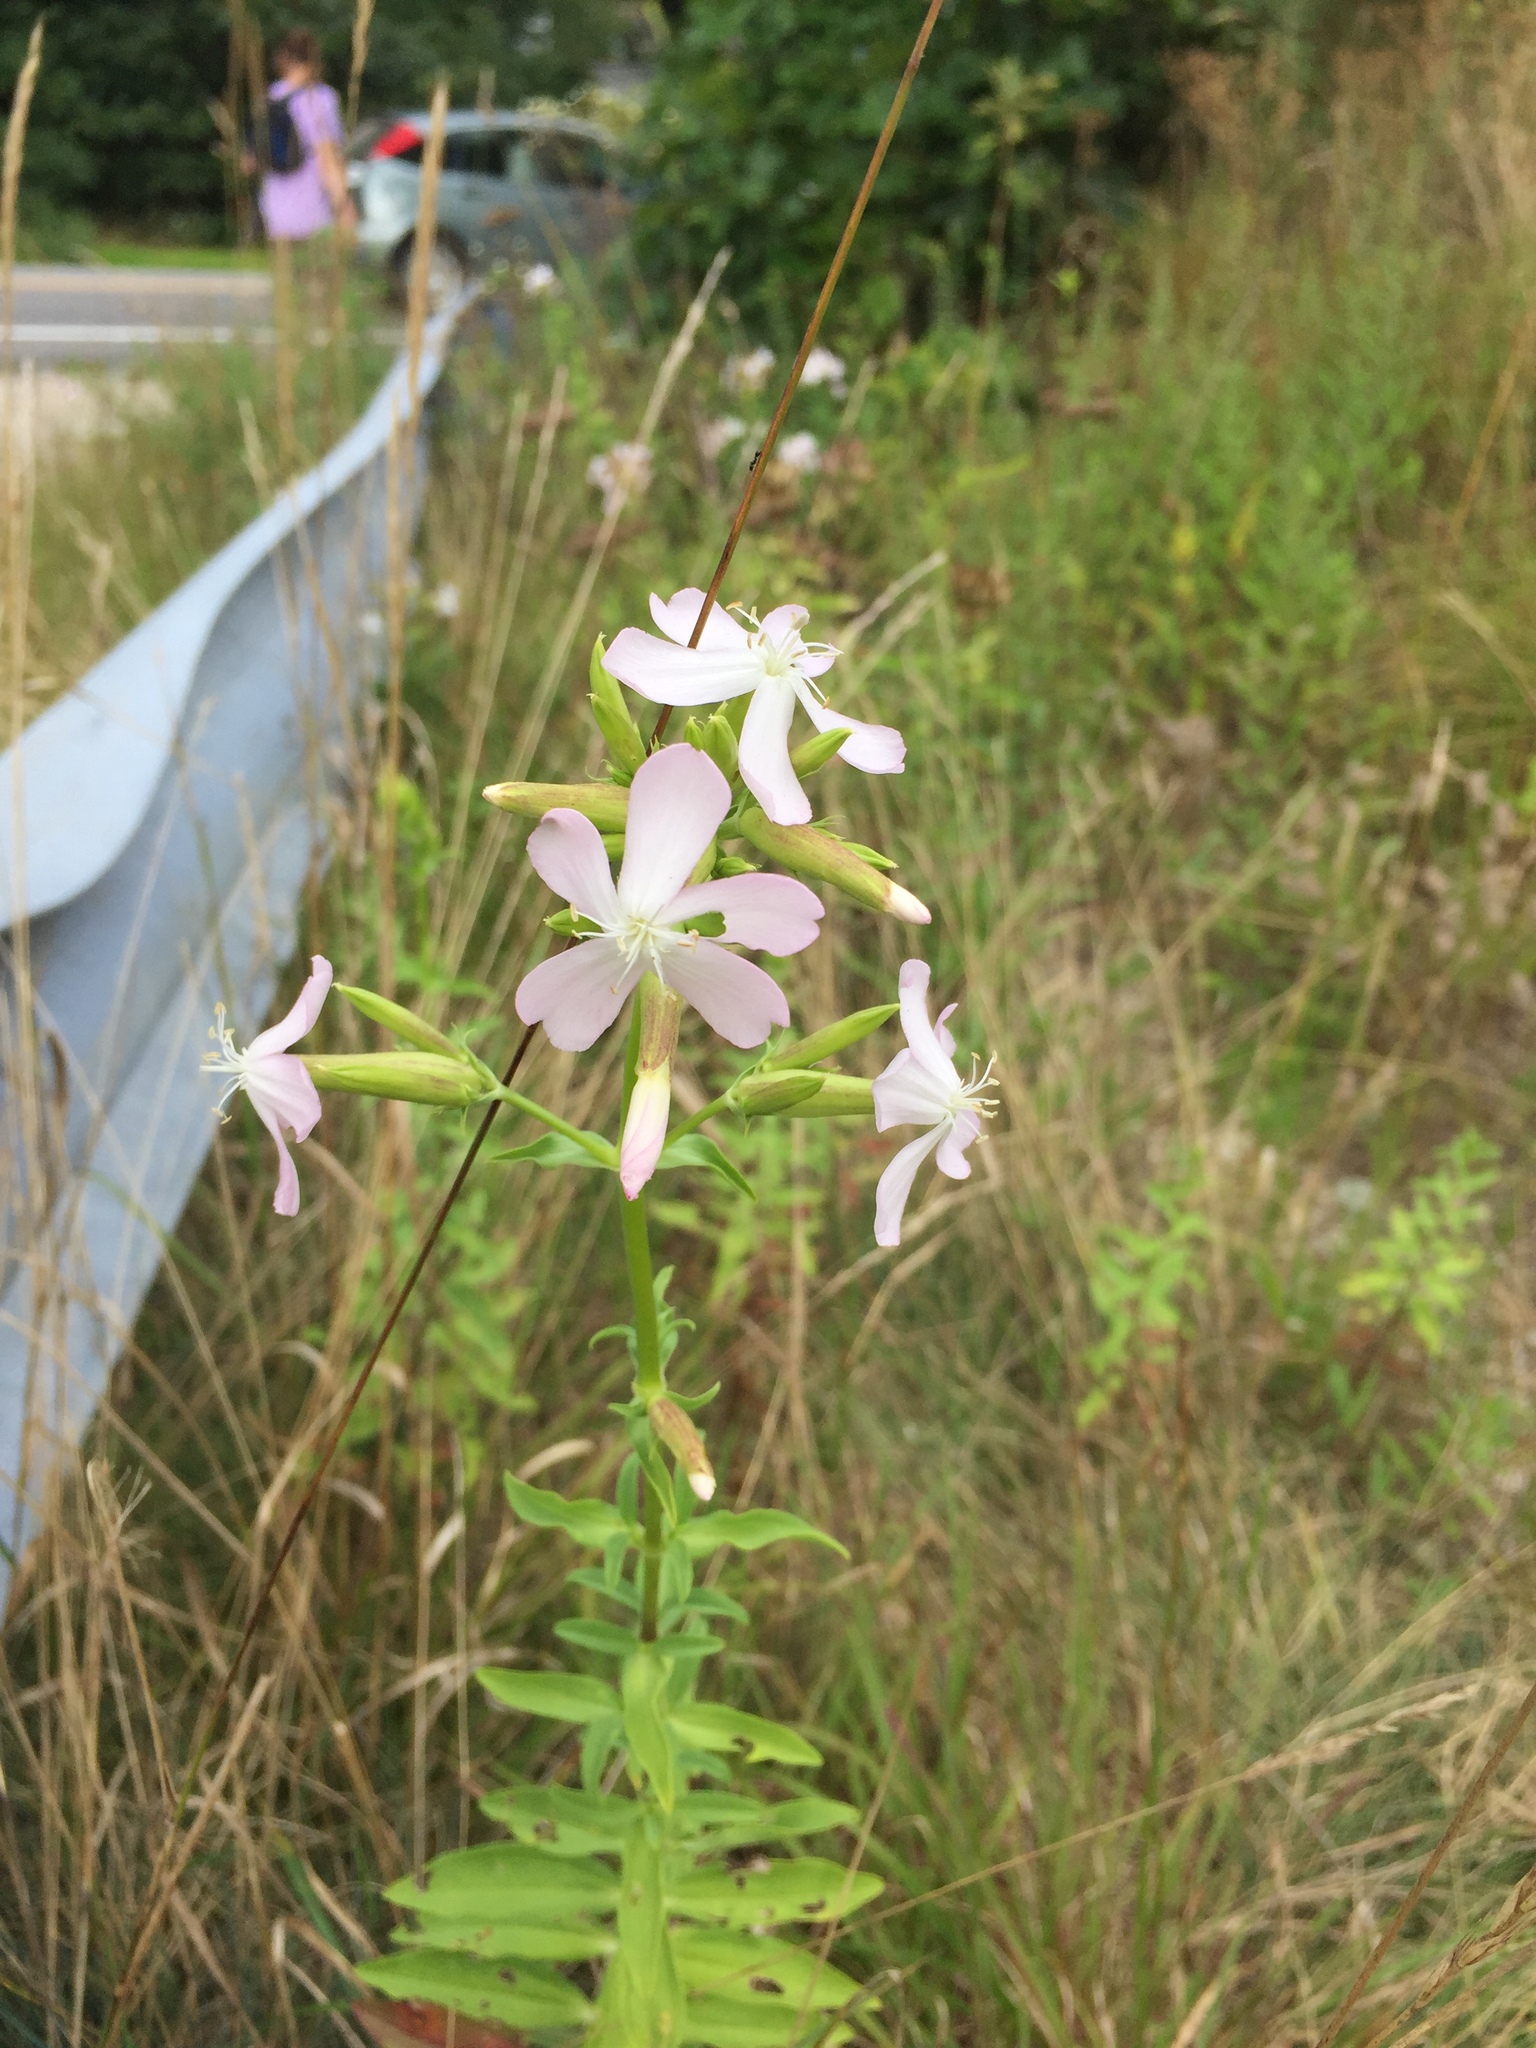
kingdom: Plantae
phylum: Tracheophyta
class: Magnoliopsida
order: Caryophyllales
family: Caryophyllaceae
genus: Saponaria
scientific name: Saponaria officinalis
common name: Soapwort
